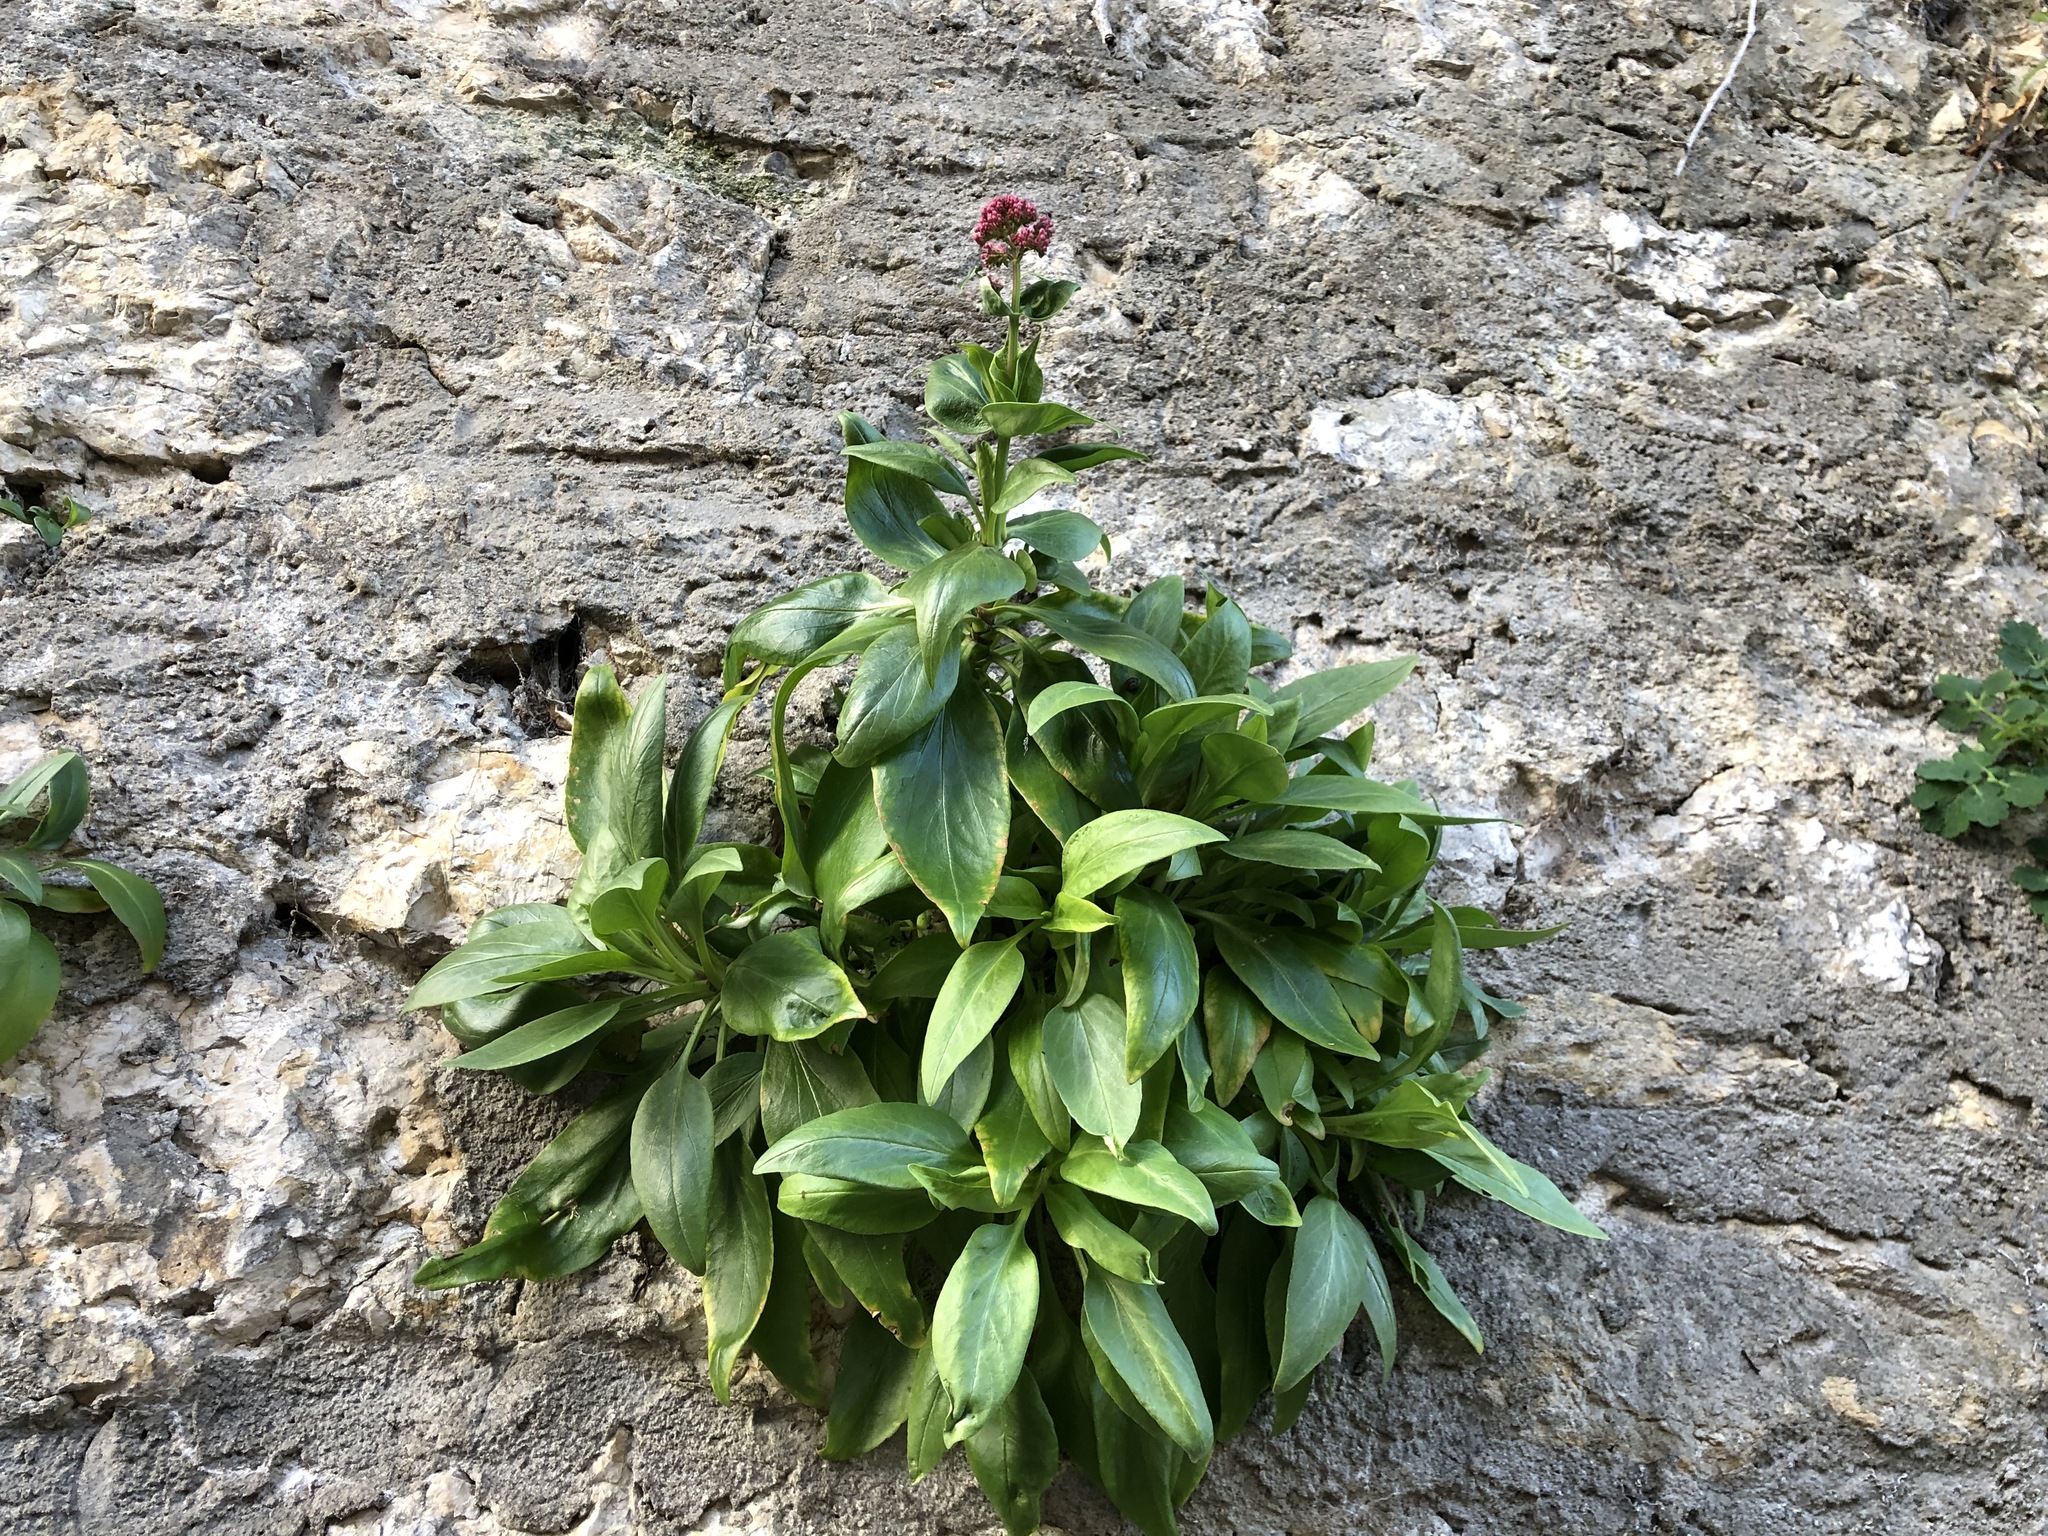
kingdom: Plantae
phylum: Tracheophyta
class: Magnoliopsida
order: Dipsacales
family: Caprifoliaceae
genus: Centranthus
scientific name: Centranthus ruber
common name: Red valerian
